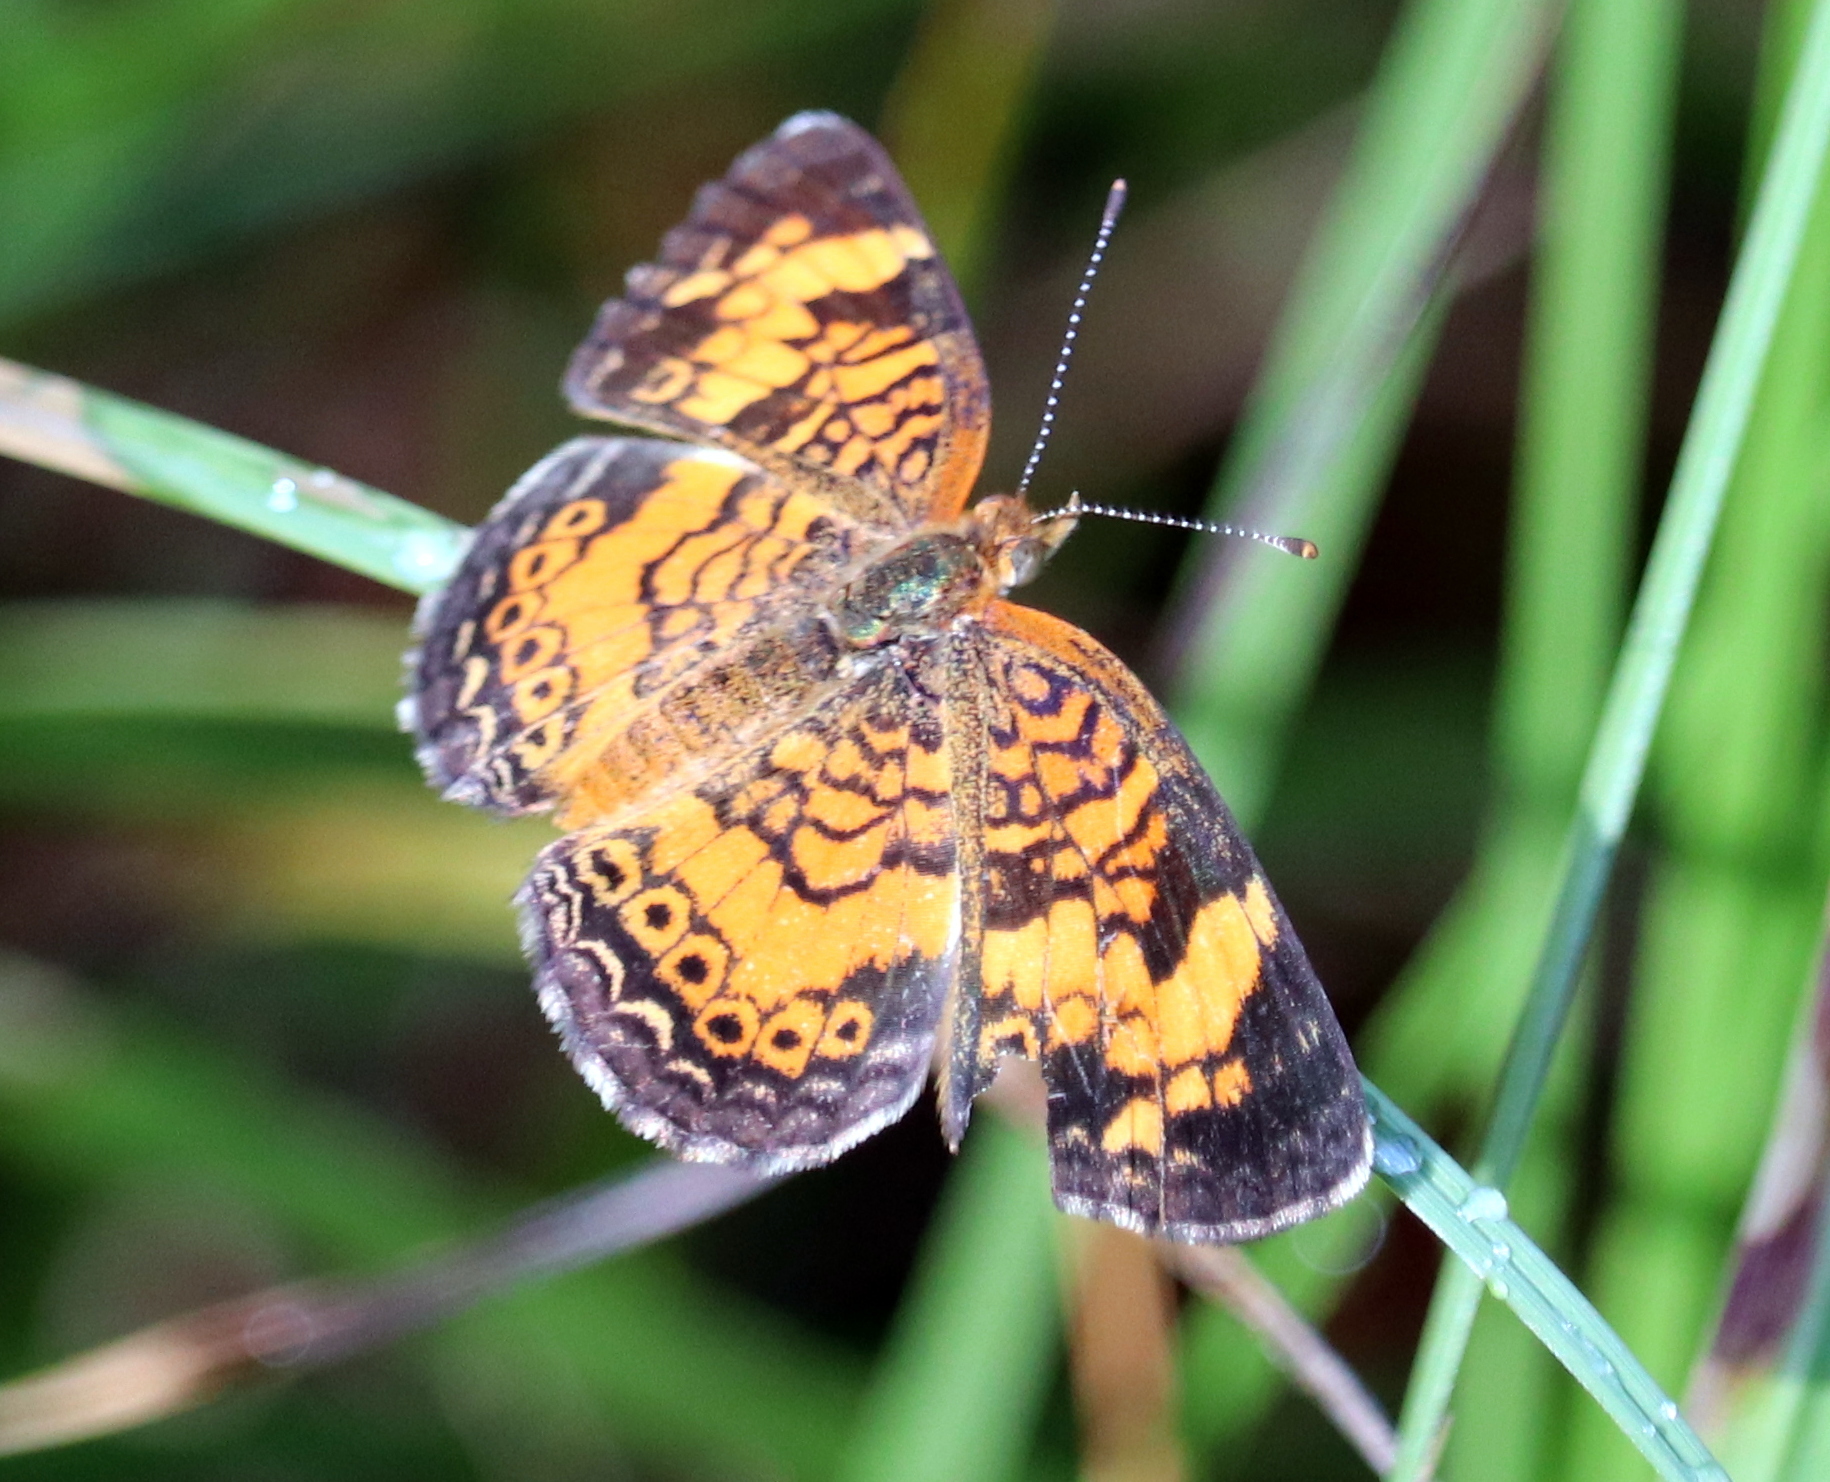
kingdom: Animalia
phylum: Arthropoda
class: Insecta
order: Lepidoptera
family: Nymphalidae
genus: Phyciodes
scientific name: Phyciodes tharos
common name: Pearl crescent
